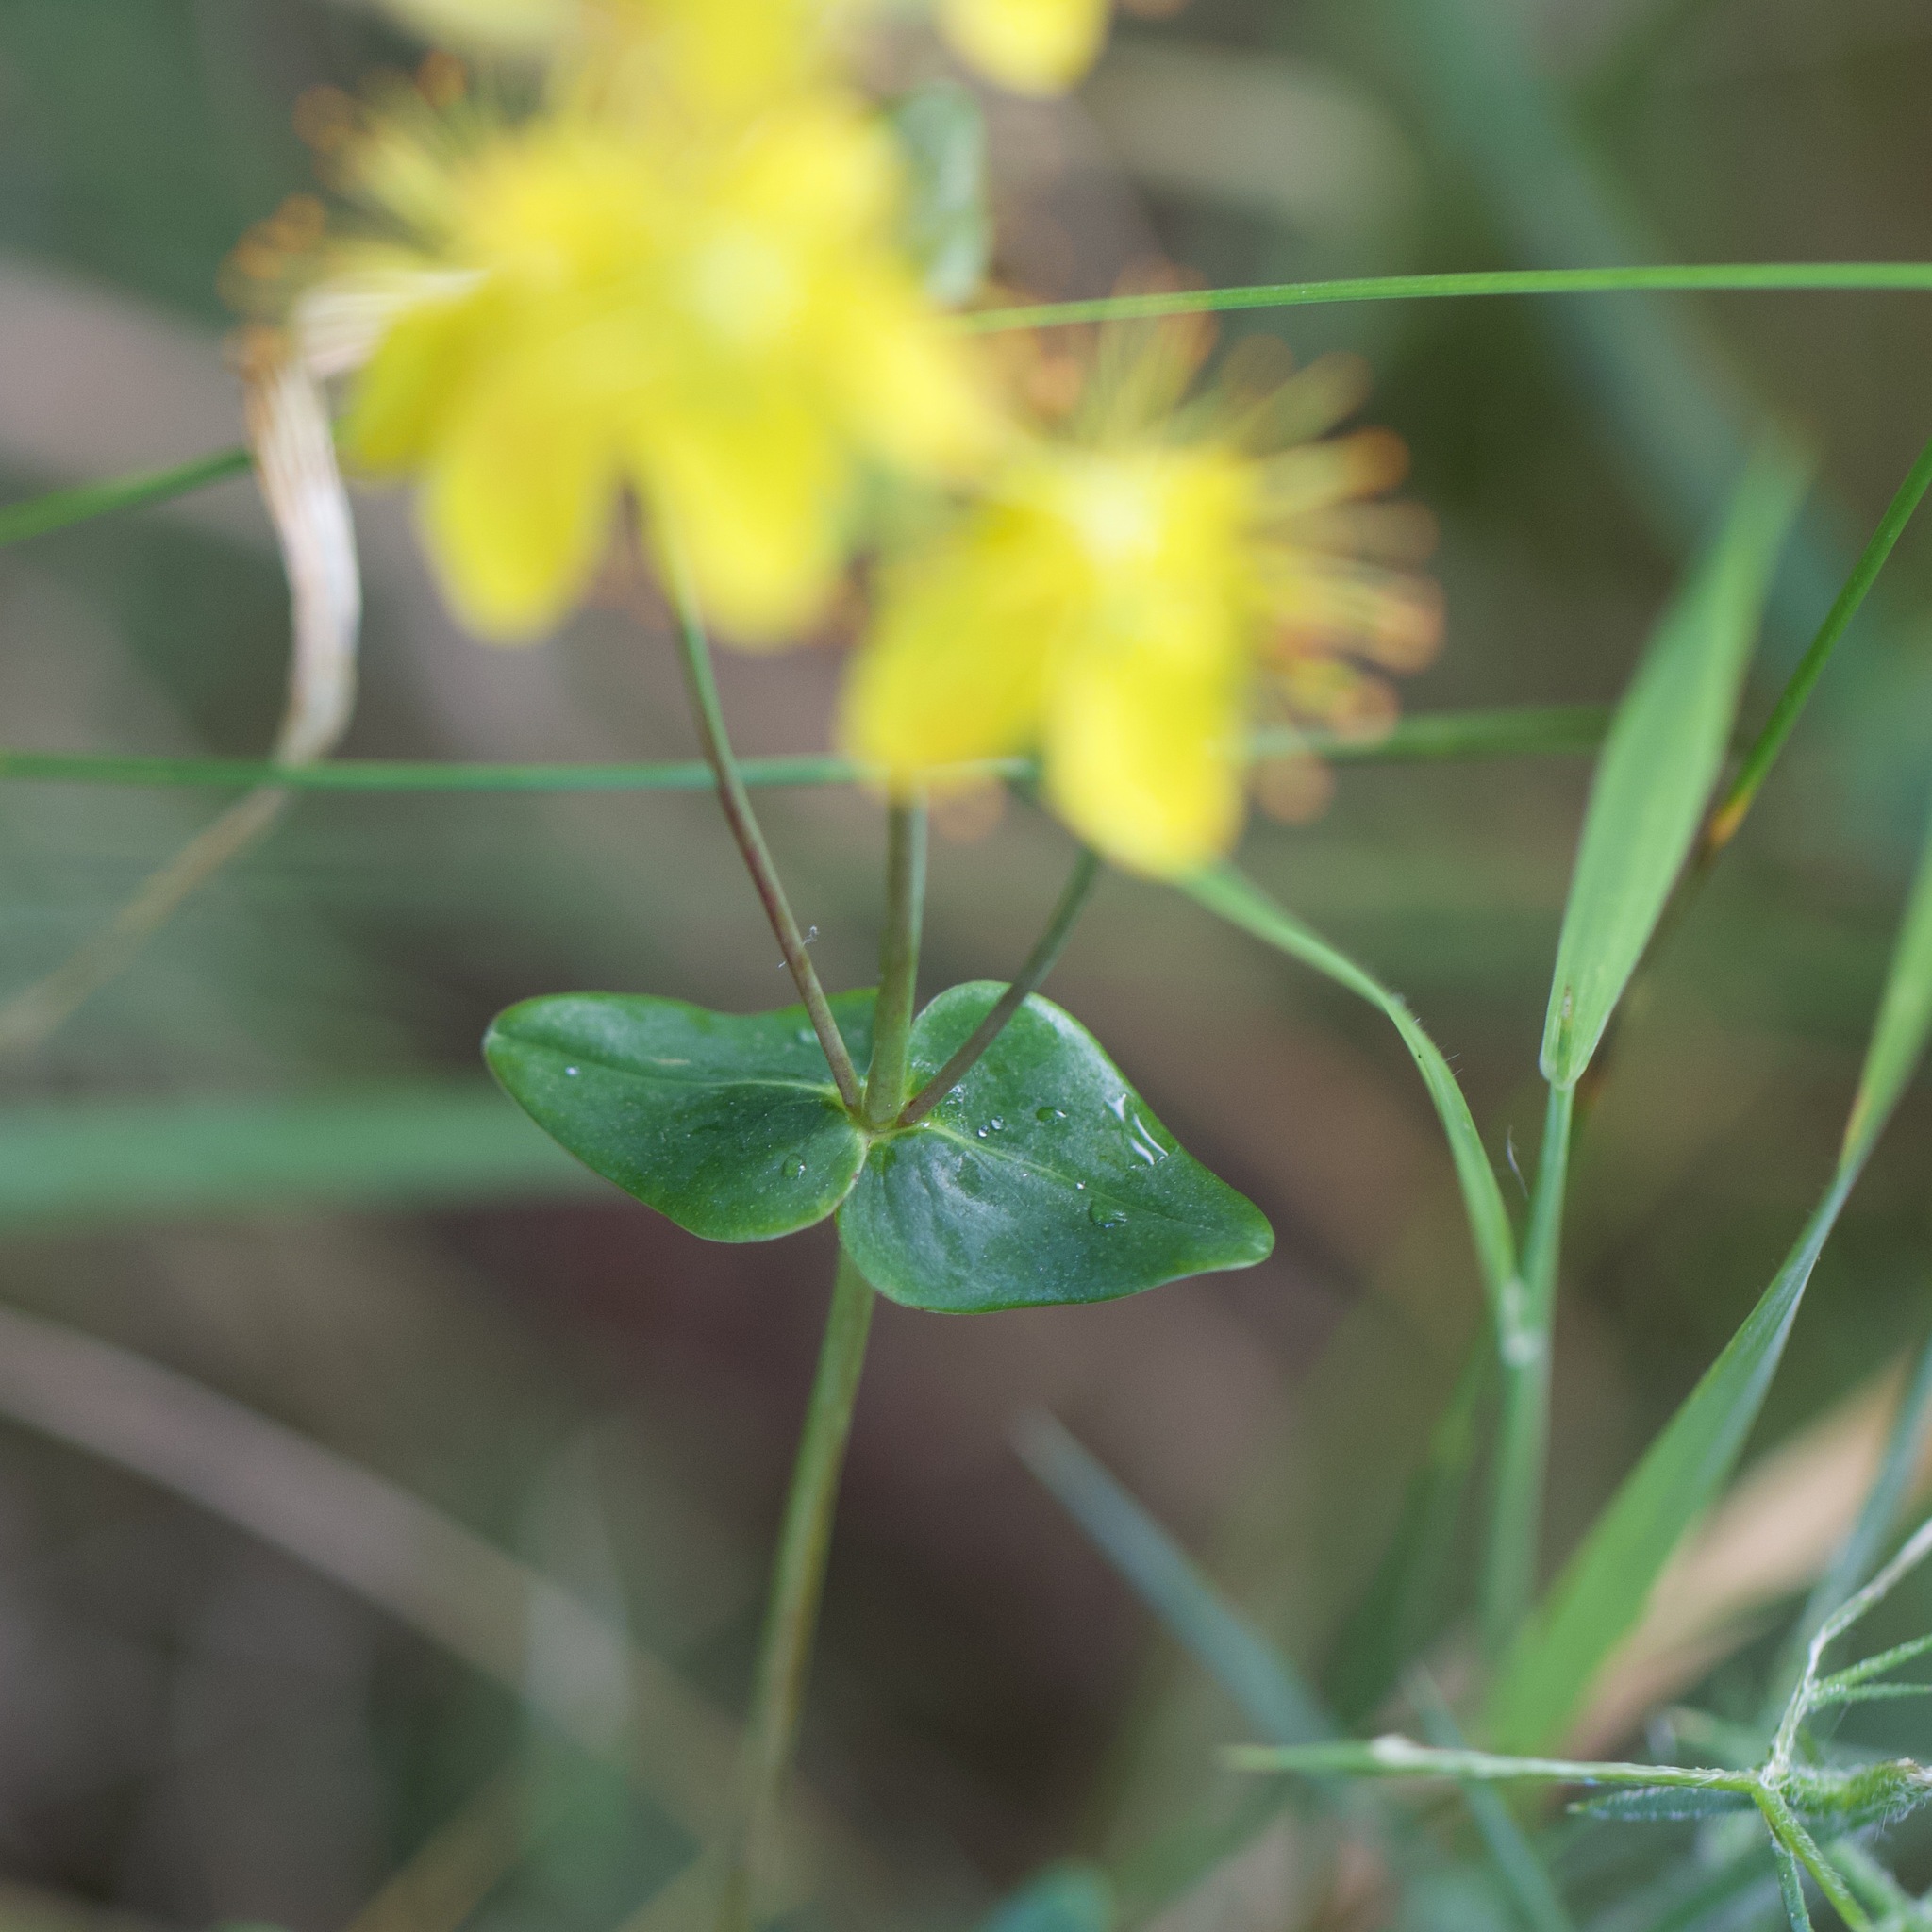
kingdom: Plantae
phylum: Tracheophyta
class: Magnoliopsida
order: Malpighiales
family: Hypericaceae
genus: Hypericum
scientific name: Hypericum pulchrum
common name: Slender st. john's-wort
